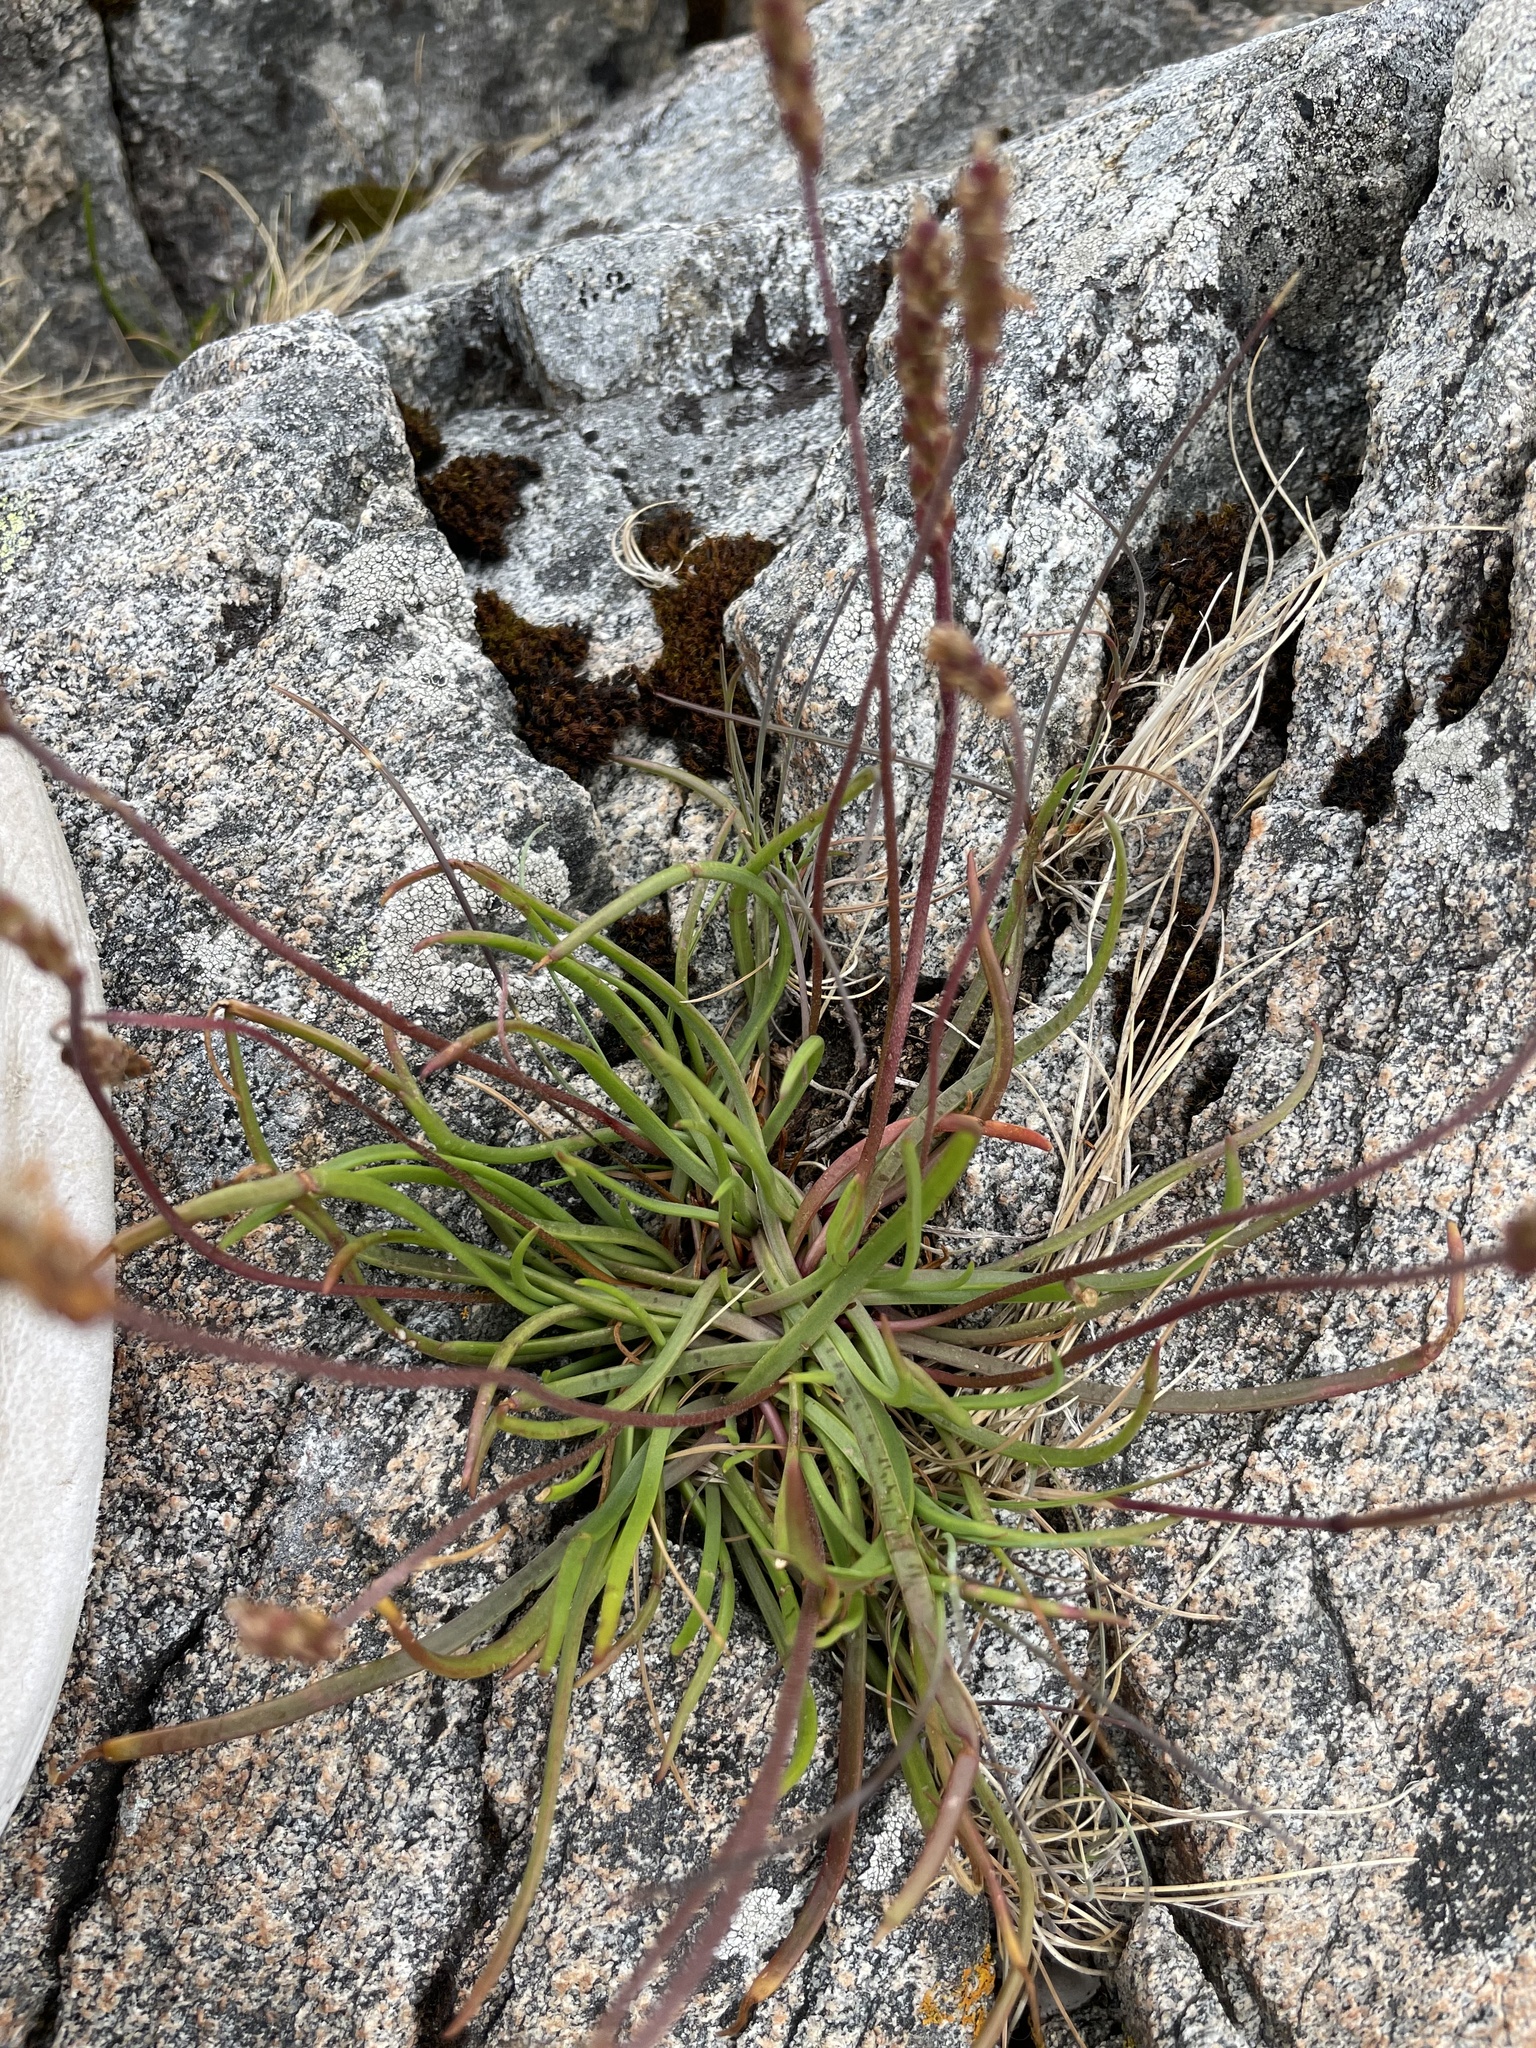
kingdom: Plantae
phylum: Tracheophyta
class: Magnoliopsida
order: Lamiales
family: Plantaginaceae
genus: Plantago
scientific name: Plantago maritima
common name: Sea plantain
